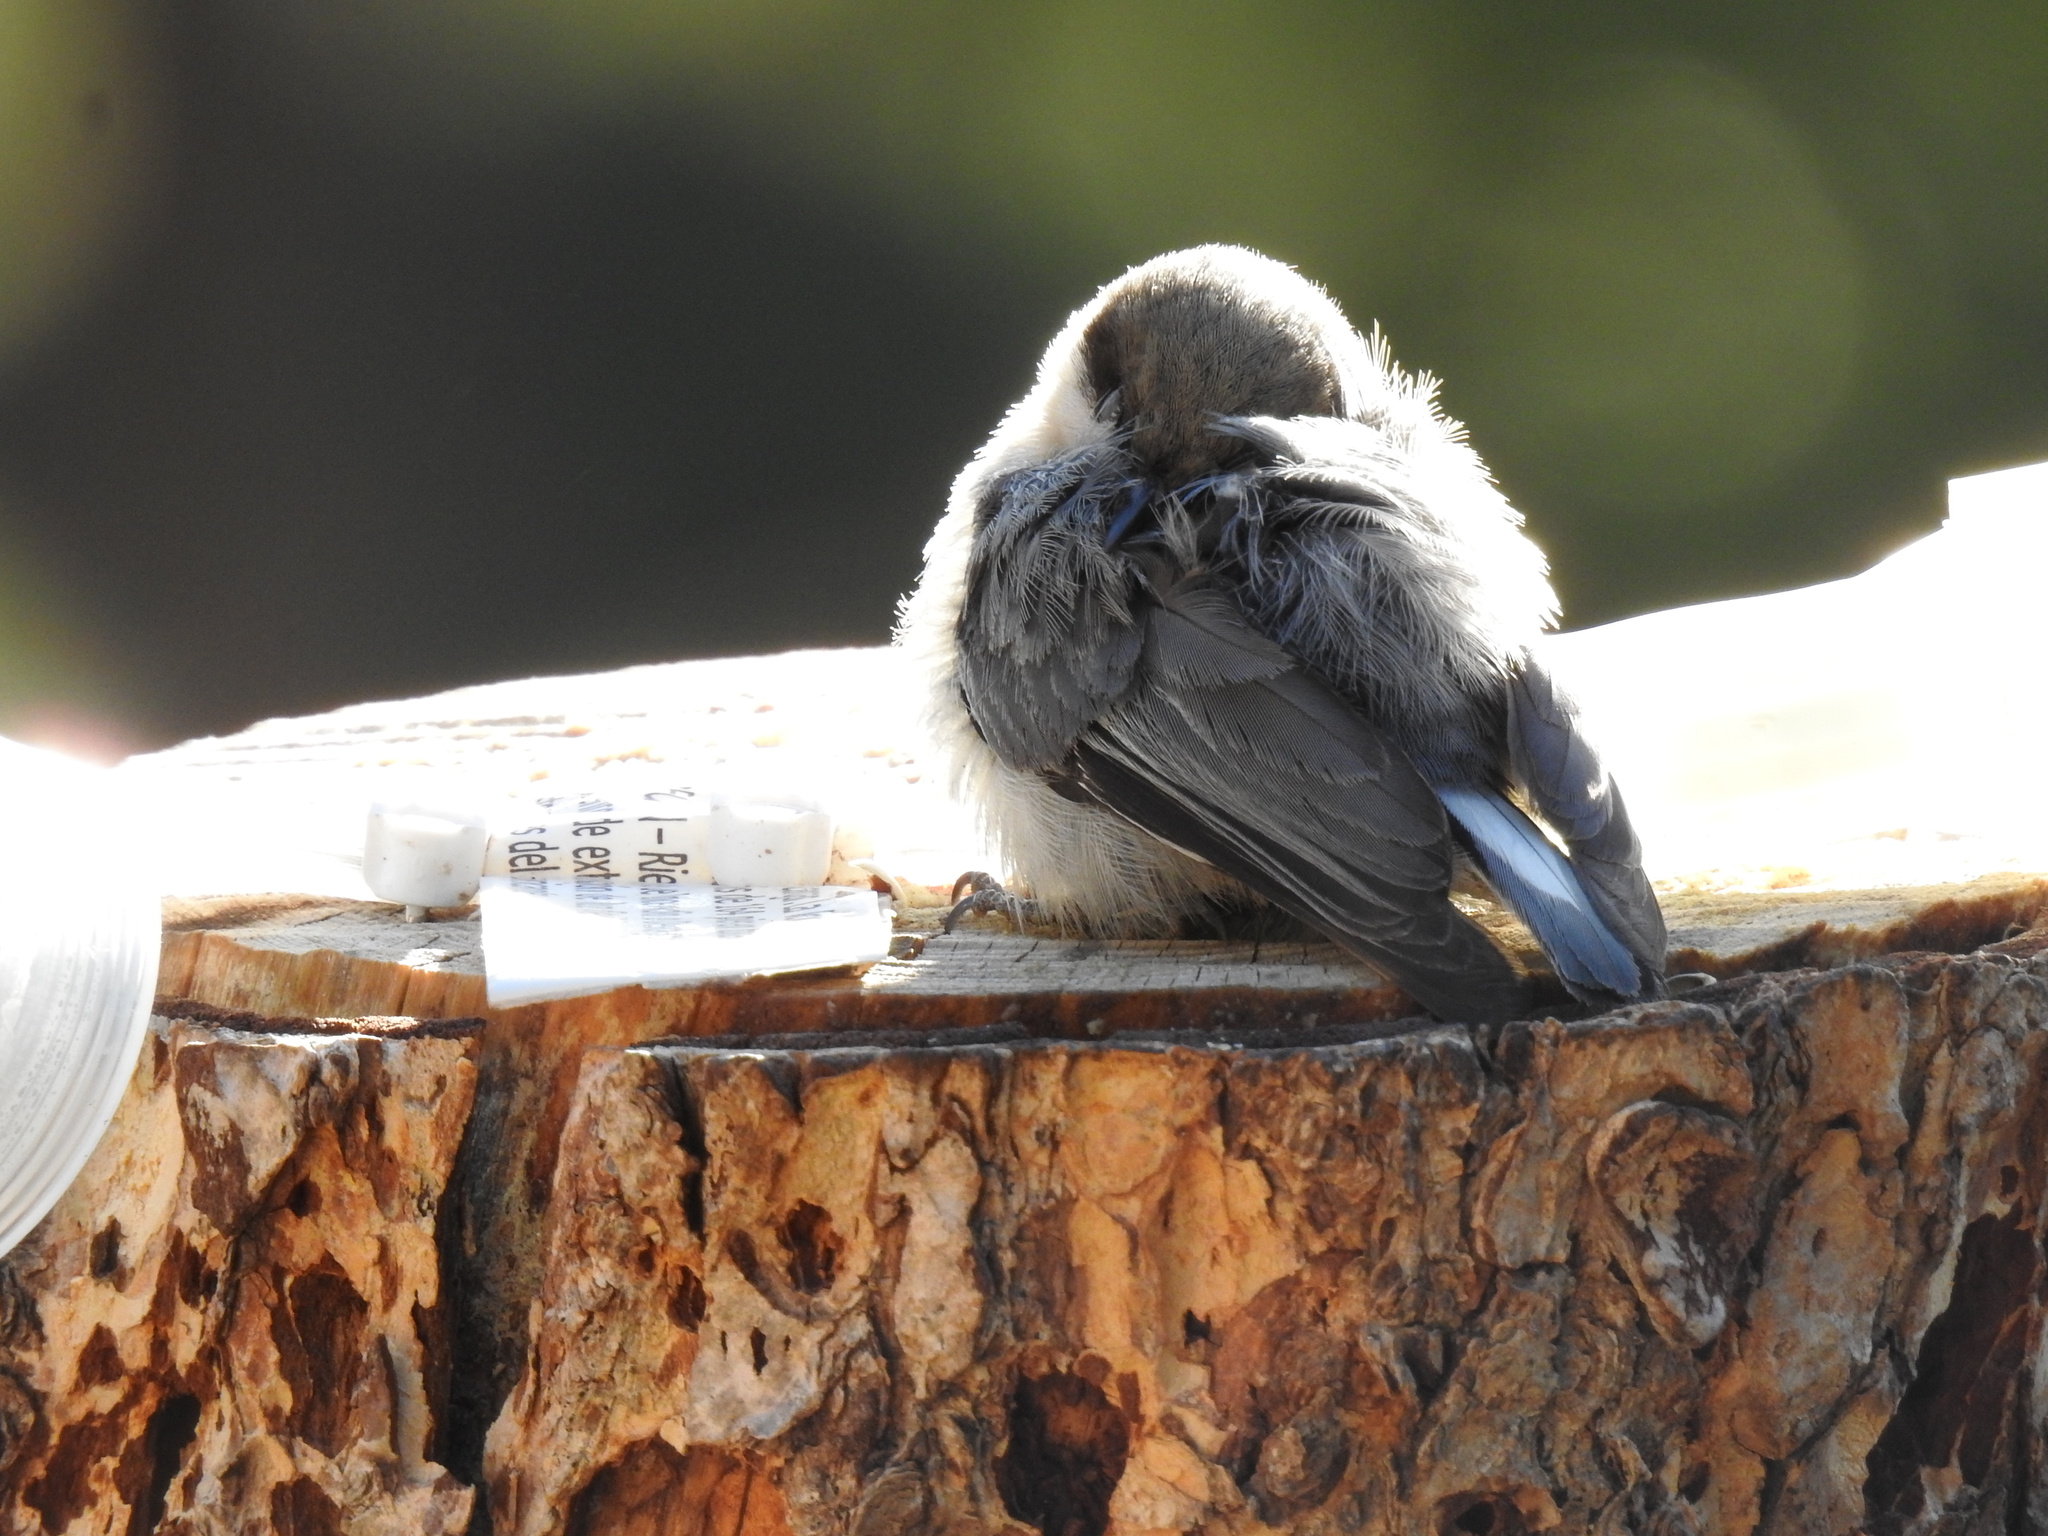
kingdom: Animalia
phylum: Chordata
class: Aves
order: Passeriformes
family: Sittidae
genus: Sitta
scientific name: Sitta pygmaea
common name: Pygmy nuthatch
